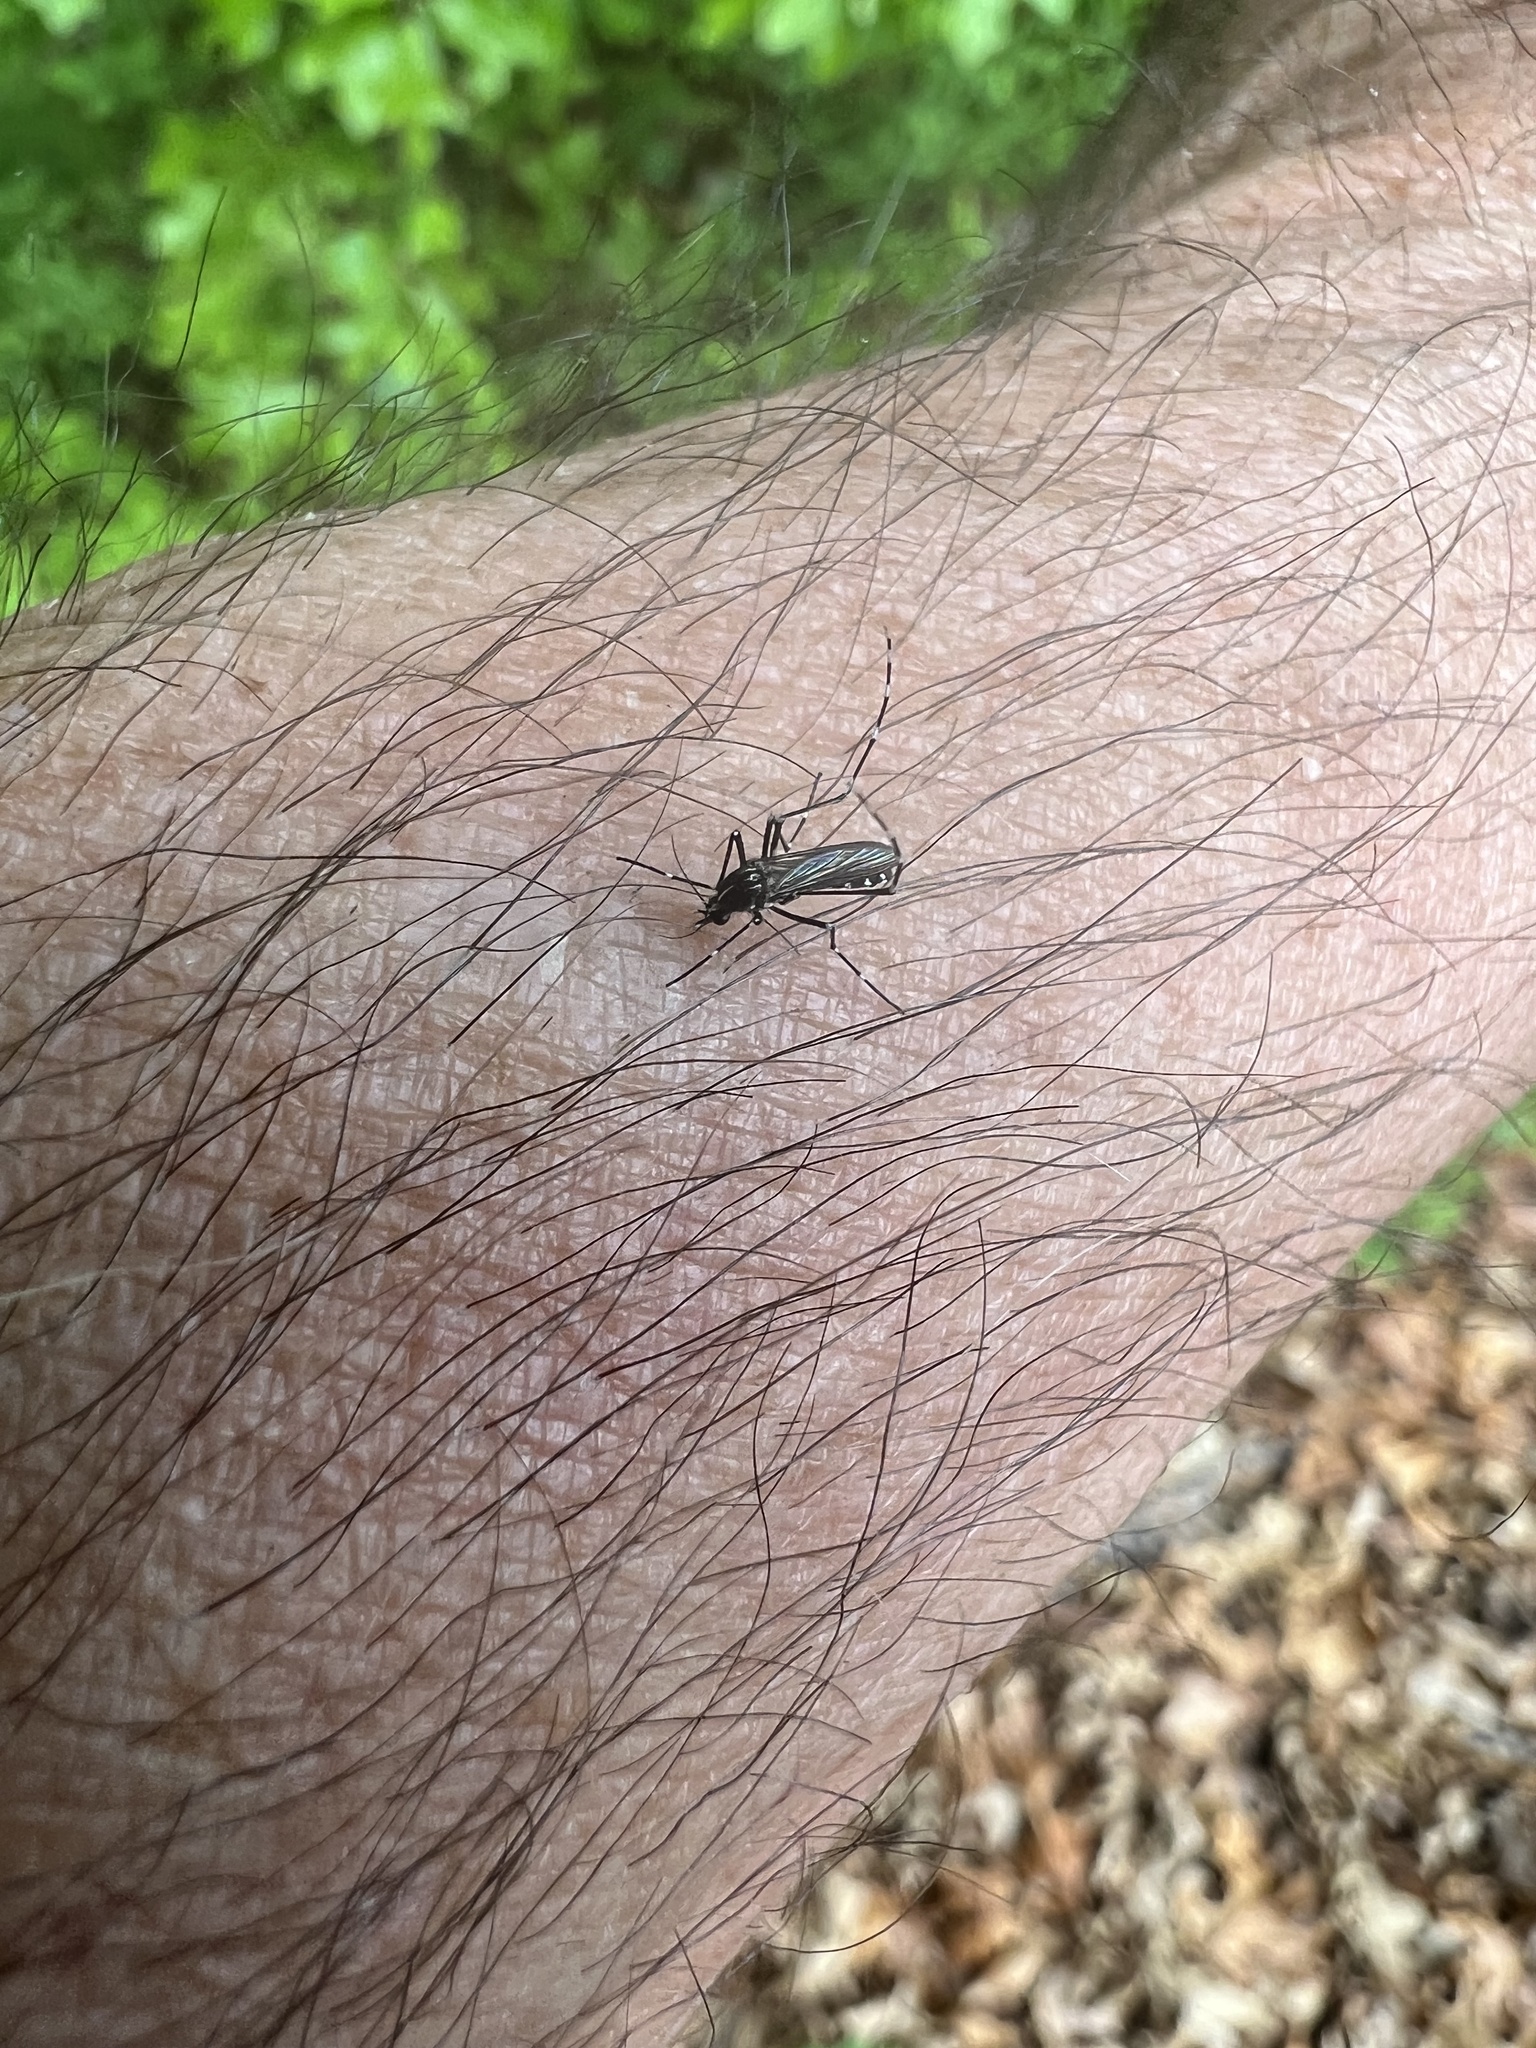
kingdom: Animalia
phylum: Arthropoda
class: Insecta
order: Diptera
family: Culicidae
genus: Aedes
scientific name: Aedes albopictus
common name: Tiger mosquito
